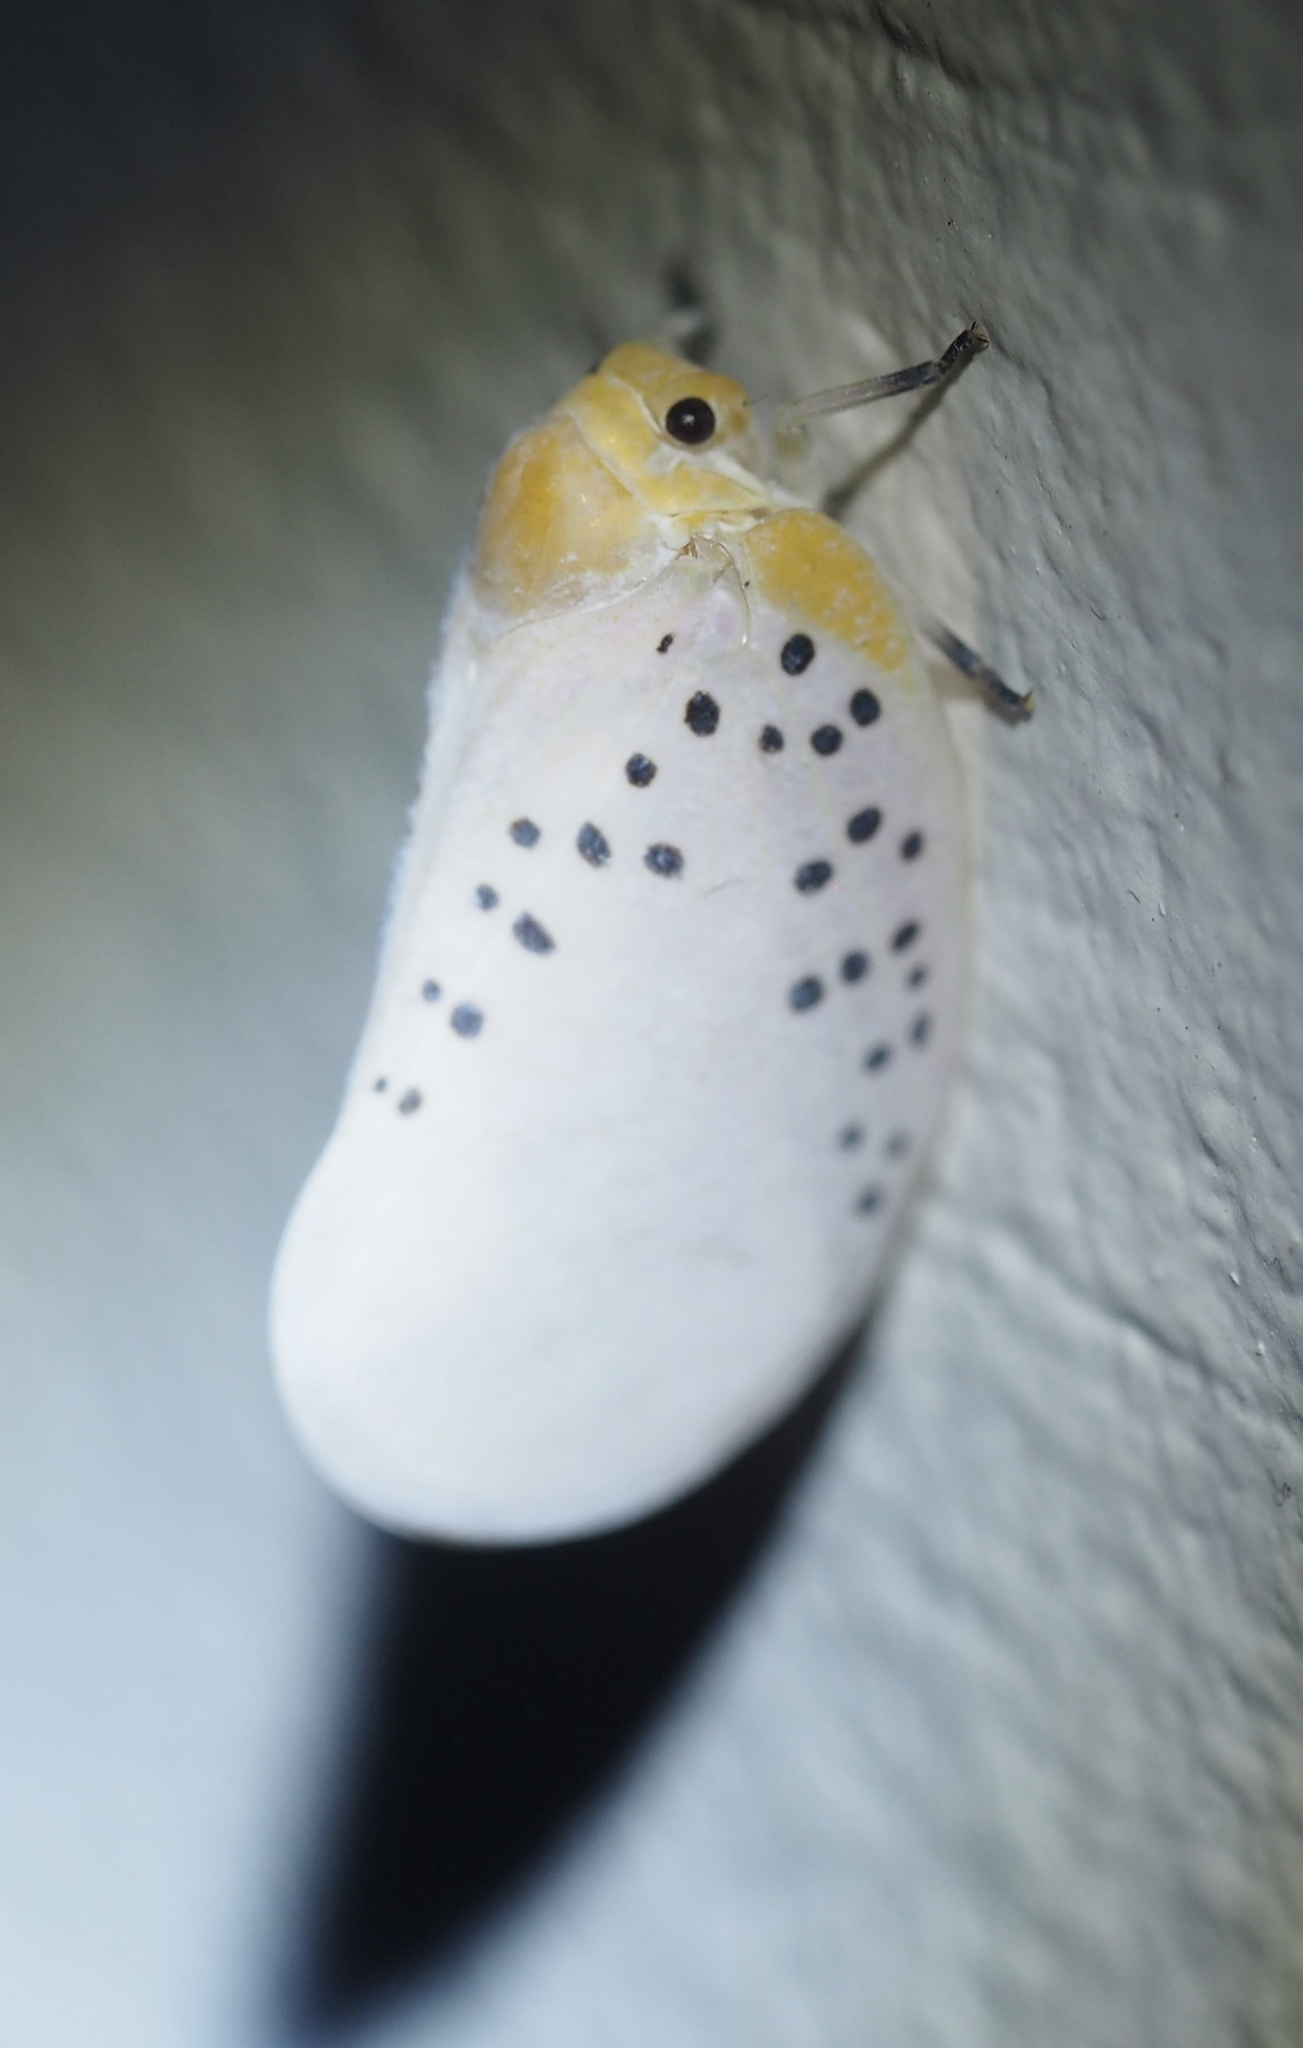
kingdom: Animalia
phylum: Arthropoda
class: Insecta
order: Hemiptera
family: Flatidae
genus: Poekilloptera
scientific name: Poekilloptera phalaenoides
